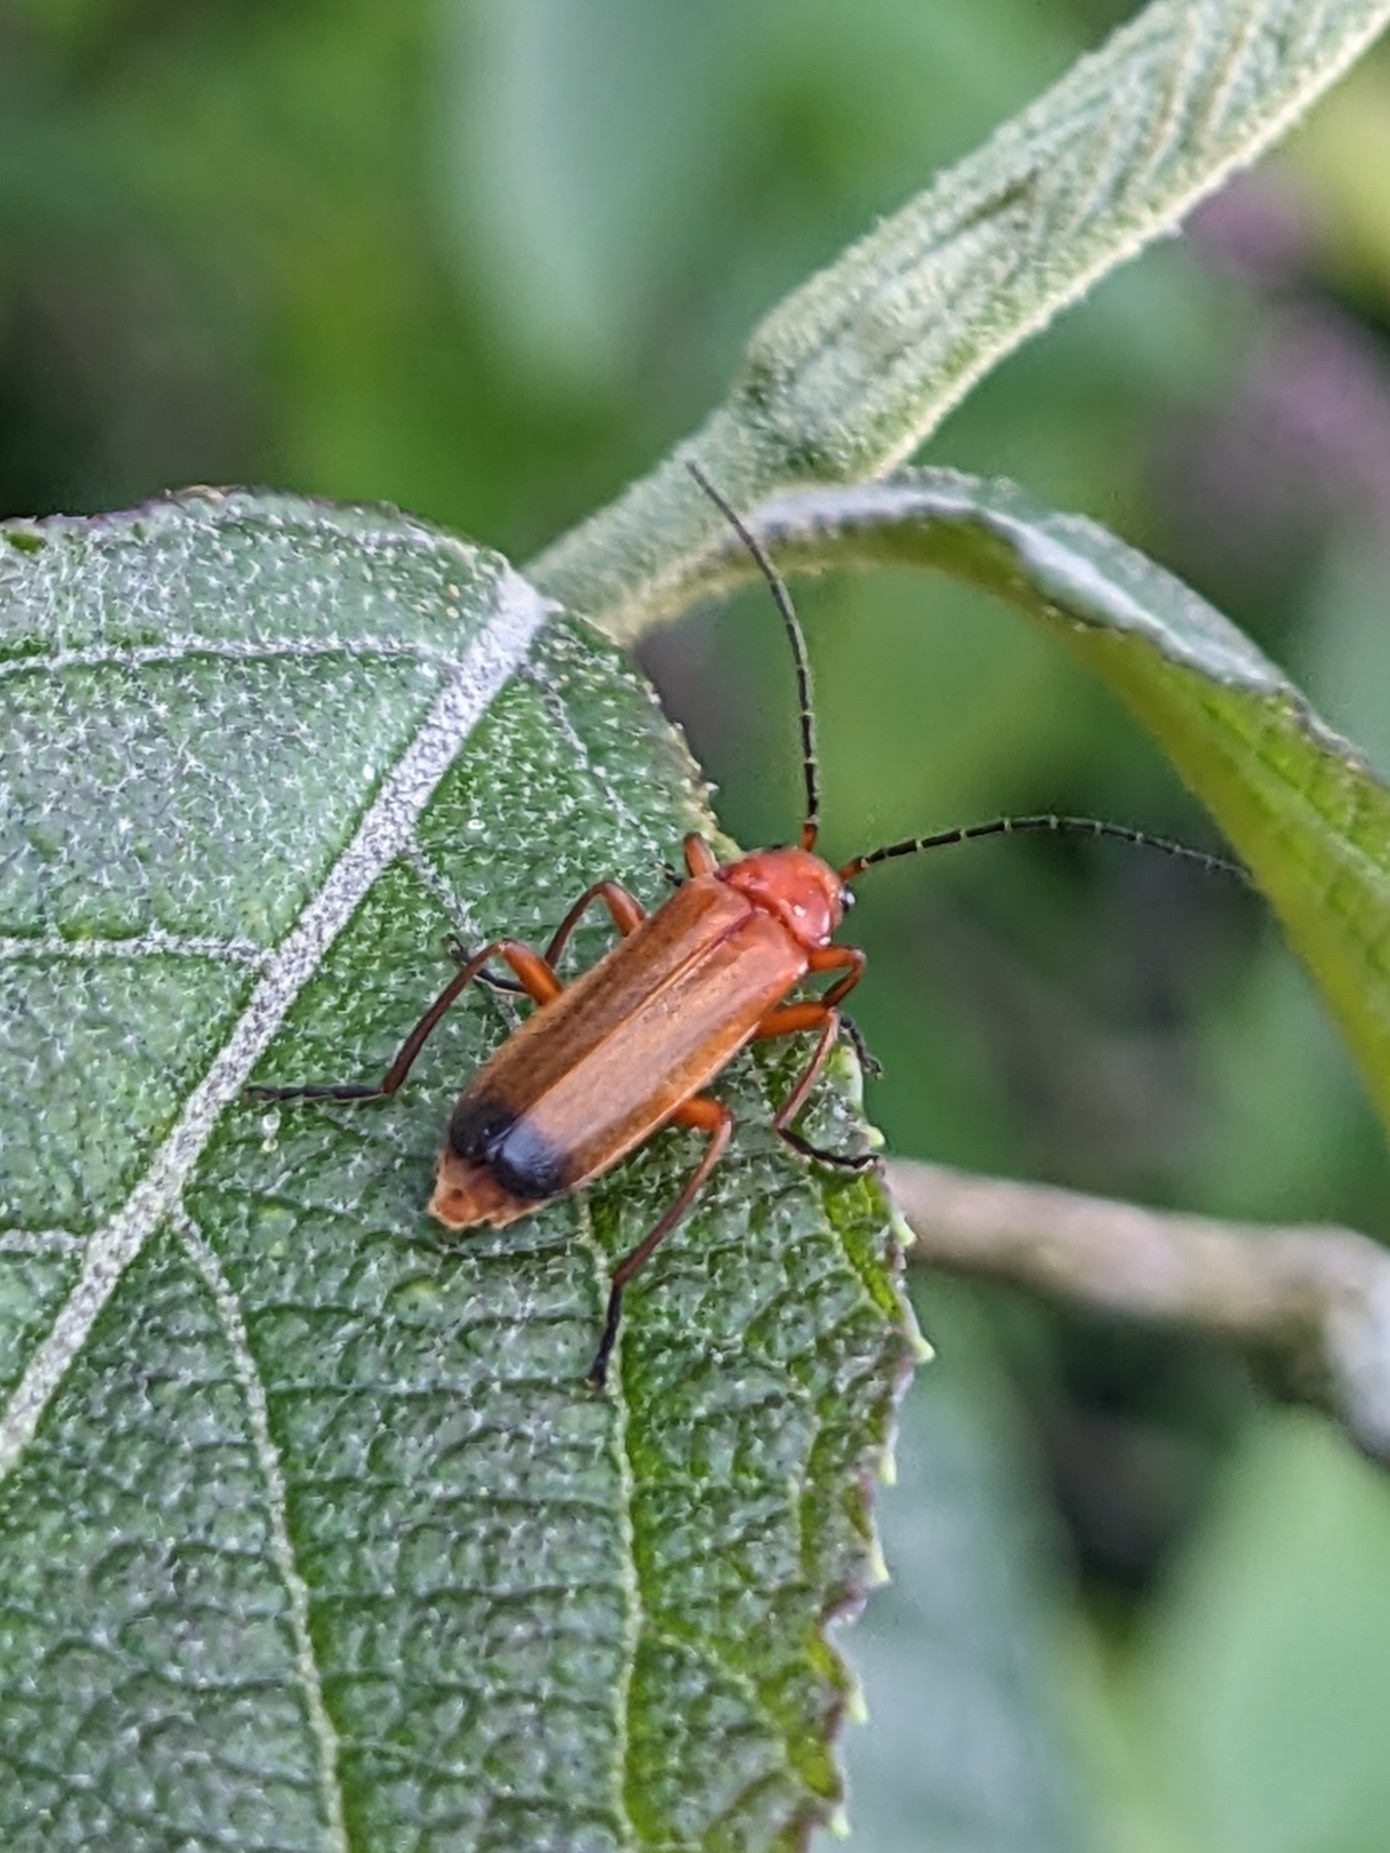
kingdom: Animalia
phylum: Arthropoda
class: Insecta
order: Coleoptera
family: Cantharidae
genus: Rhagonycha
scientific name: Rhagonycha fulva
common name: Common red soldier beetle
